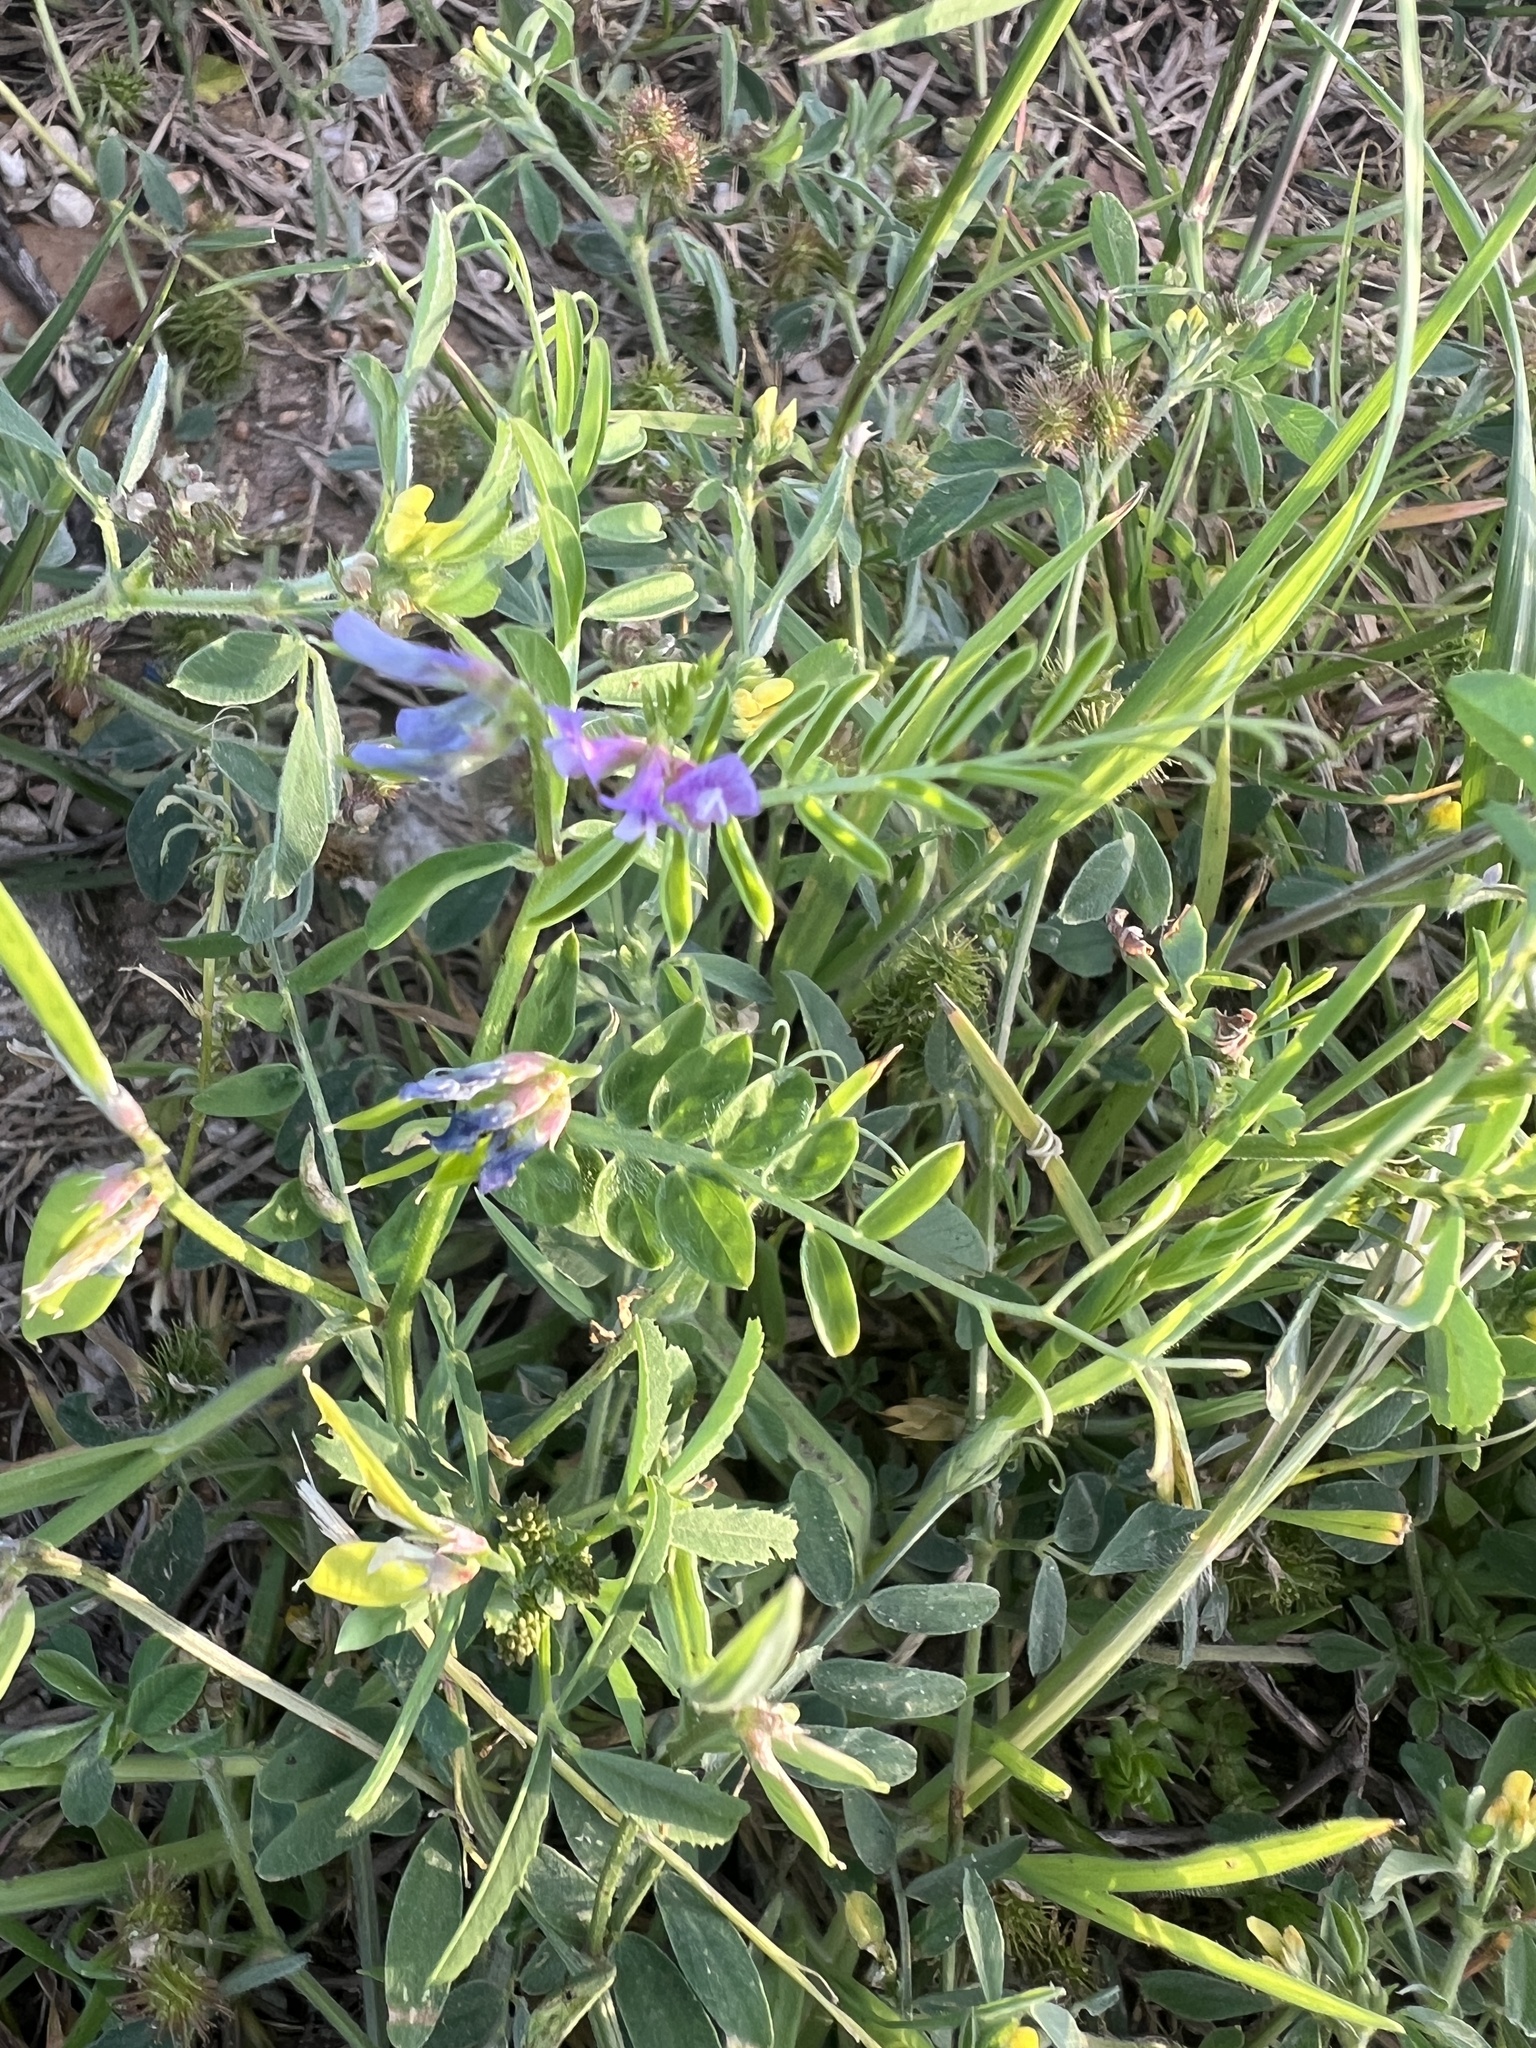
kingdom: Plantae
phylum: Tracheophyta
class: Magnoliopsida
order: Fabales
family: Fabaceae
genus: Vicia
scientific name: Vicia ludoviciana
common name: Louisiana vetch
